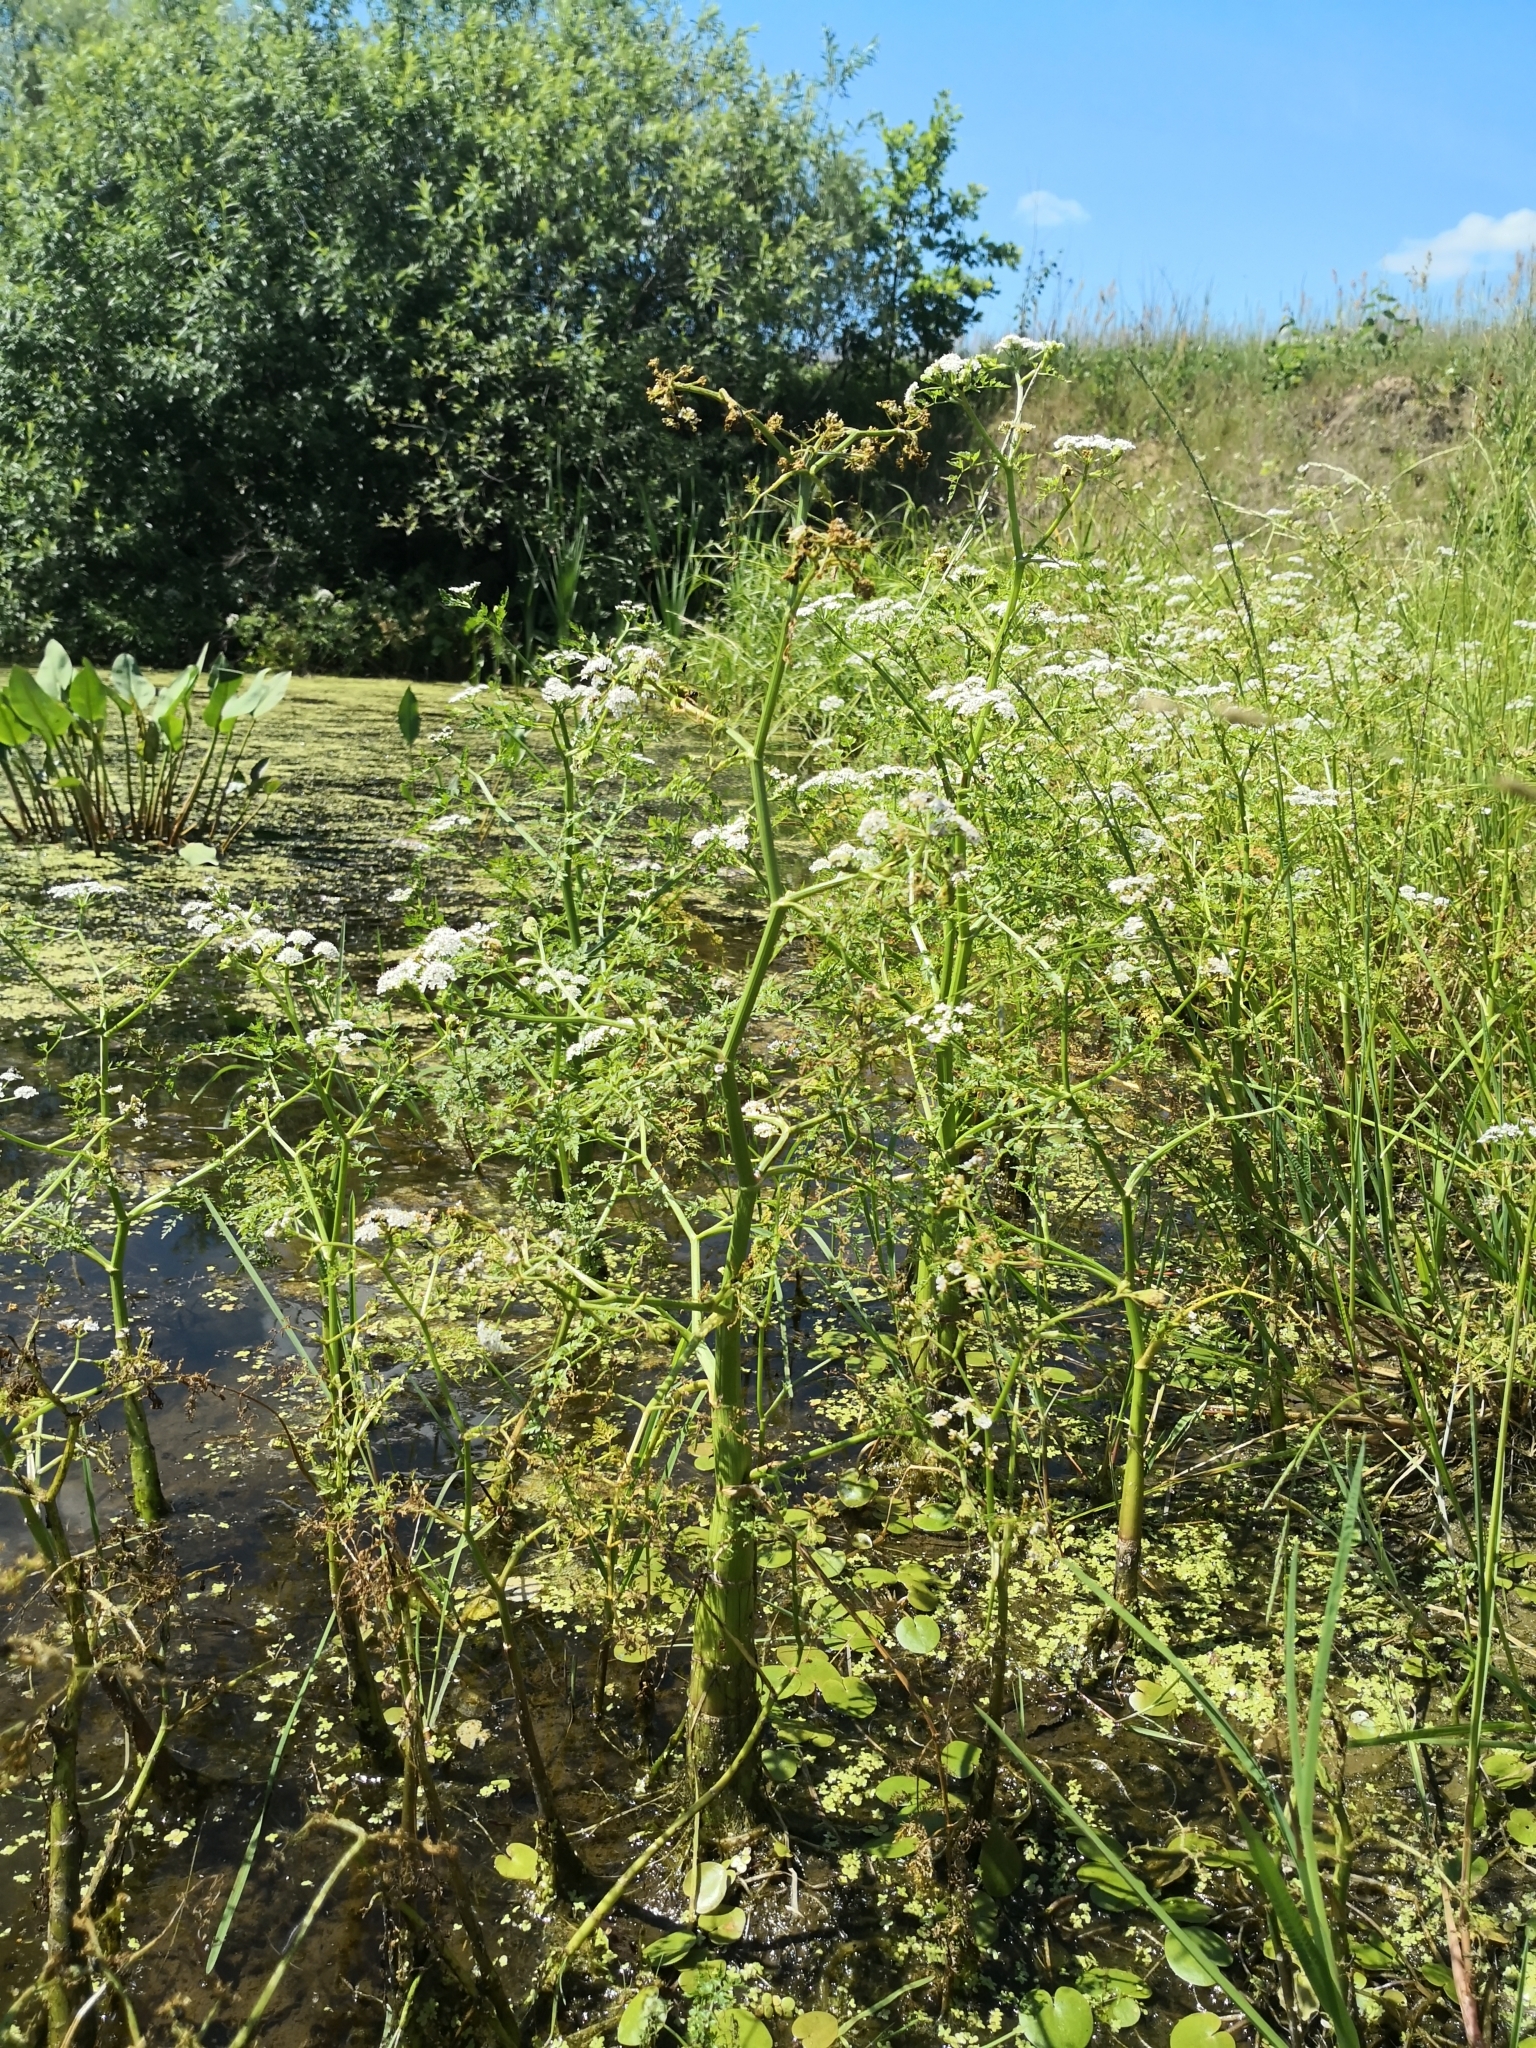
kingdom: Plantae
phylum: Tracheophyta
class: Magnoliopsida
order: Apiales
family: Apiaceae
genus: Oenanthe
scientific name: Oenanthe aquatica
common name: Fine-leaved water-dropwort
